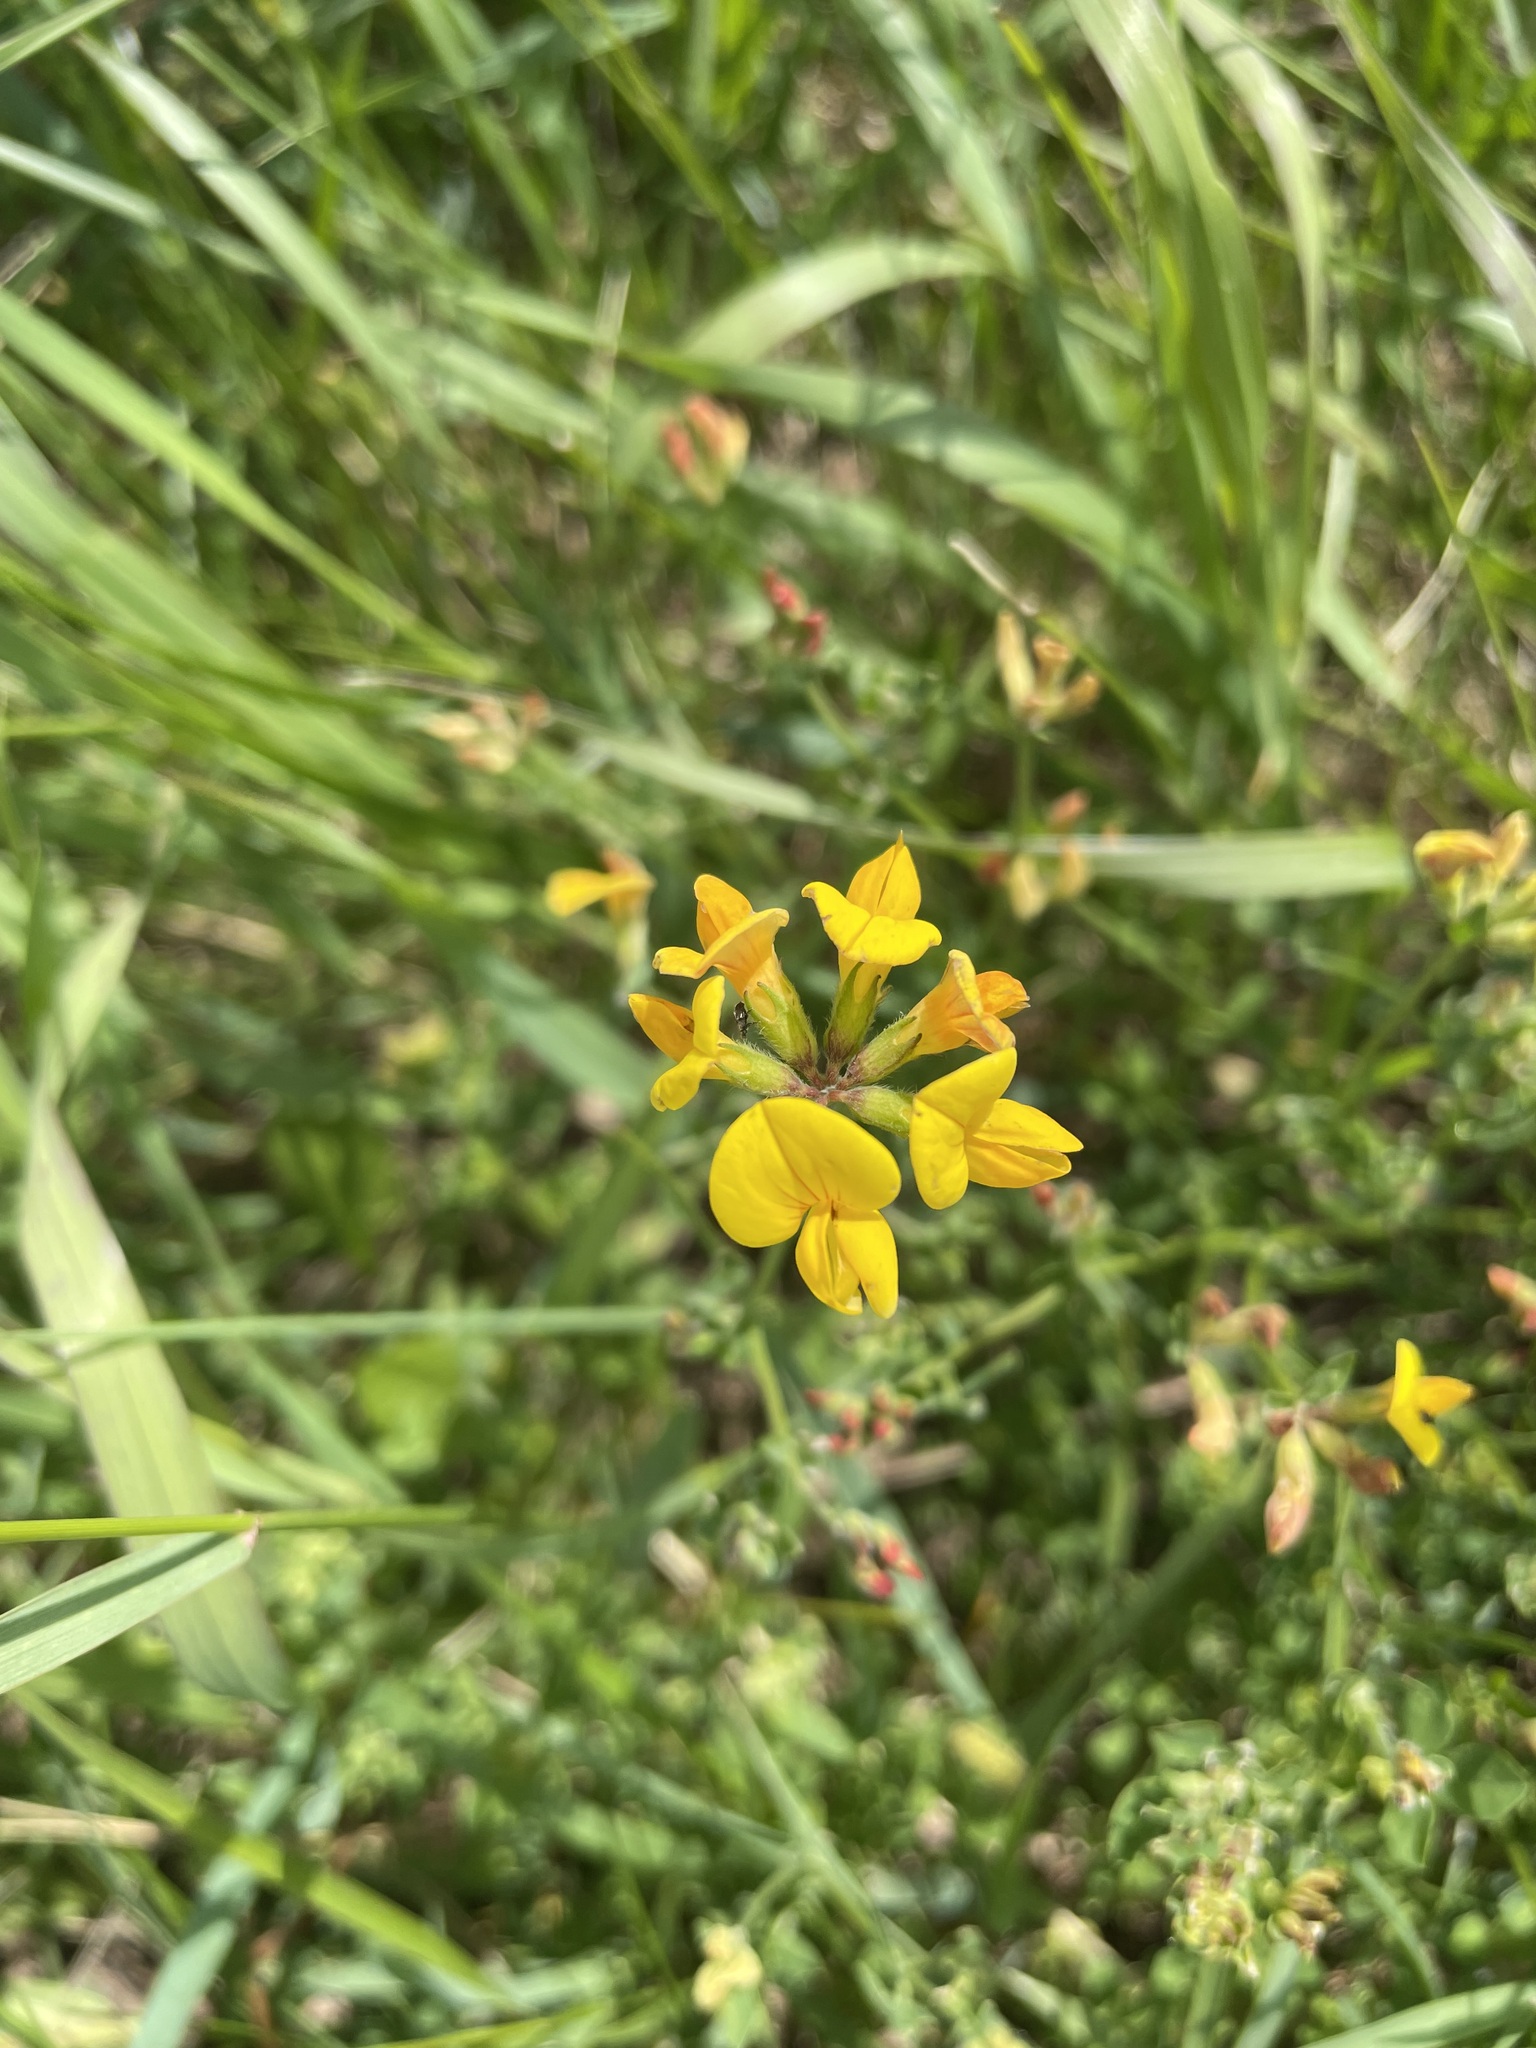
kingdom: Plantae
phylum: Tracheophyta
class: Magnoliopsida
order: Fabales
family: Fabaceae
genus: Lotus
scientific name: Lotus corniculatus
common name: Common bird's-foot-trefoil
